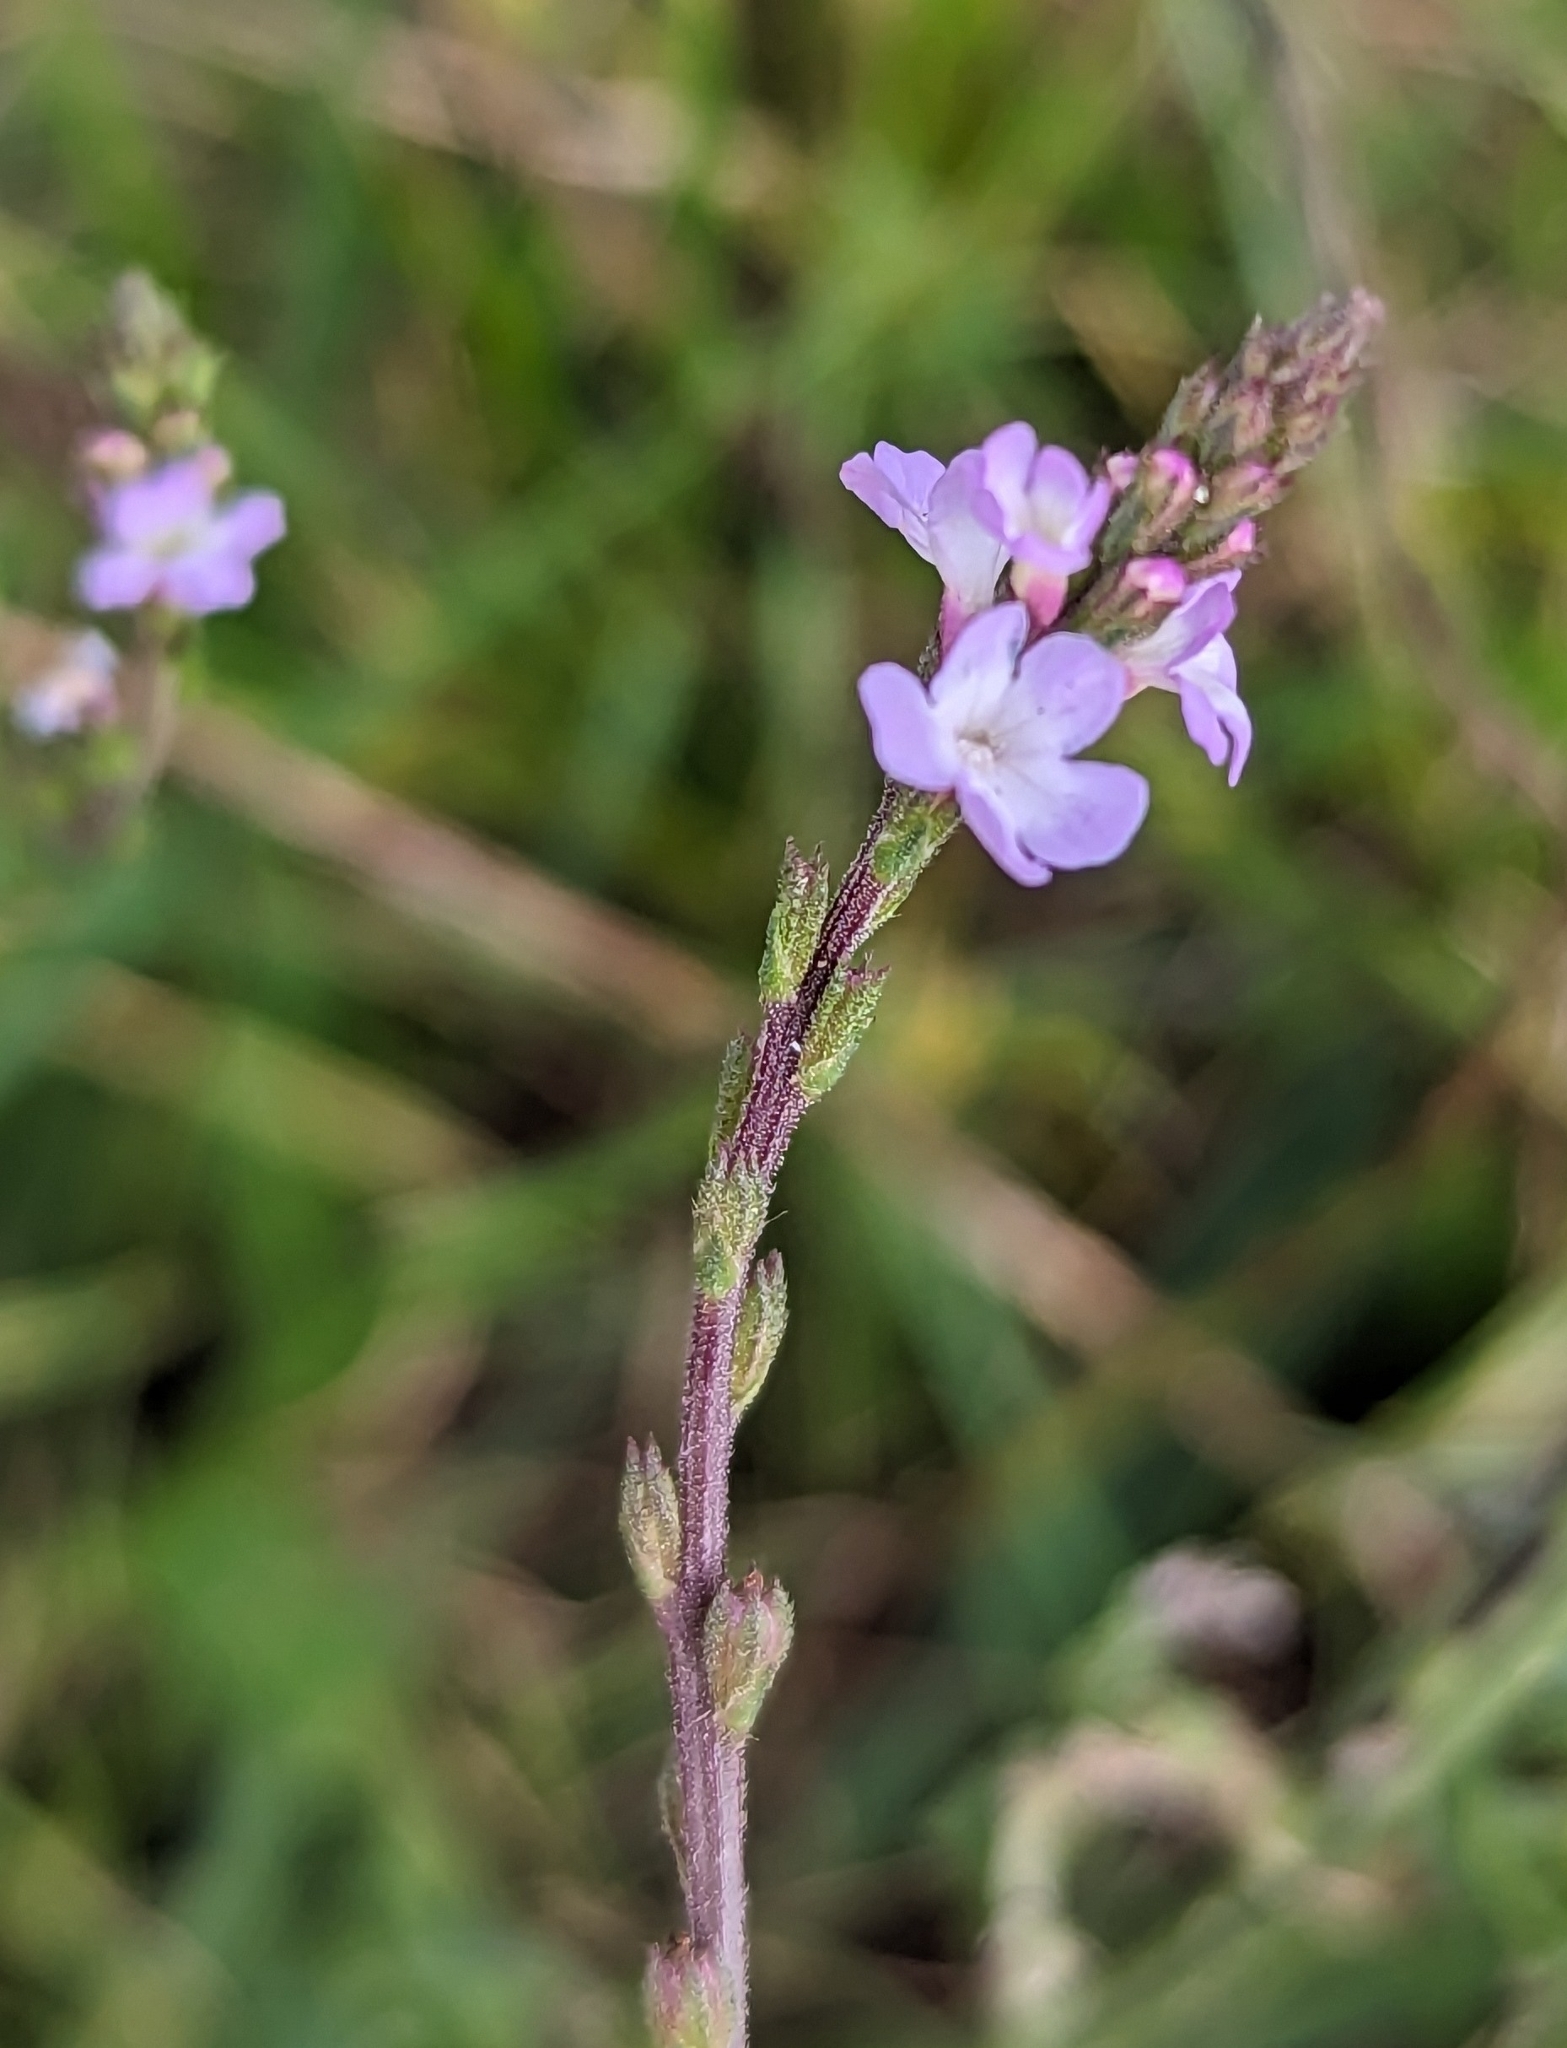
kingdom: Plantae
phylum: Tracheophyta
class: Magnoliopsida
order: Lamiales
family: Verbenaceae
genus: Verbena
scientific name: Verbena officinalis
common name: Vervain
